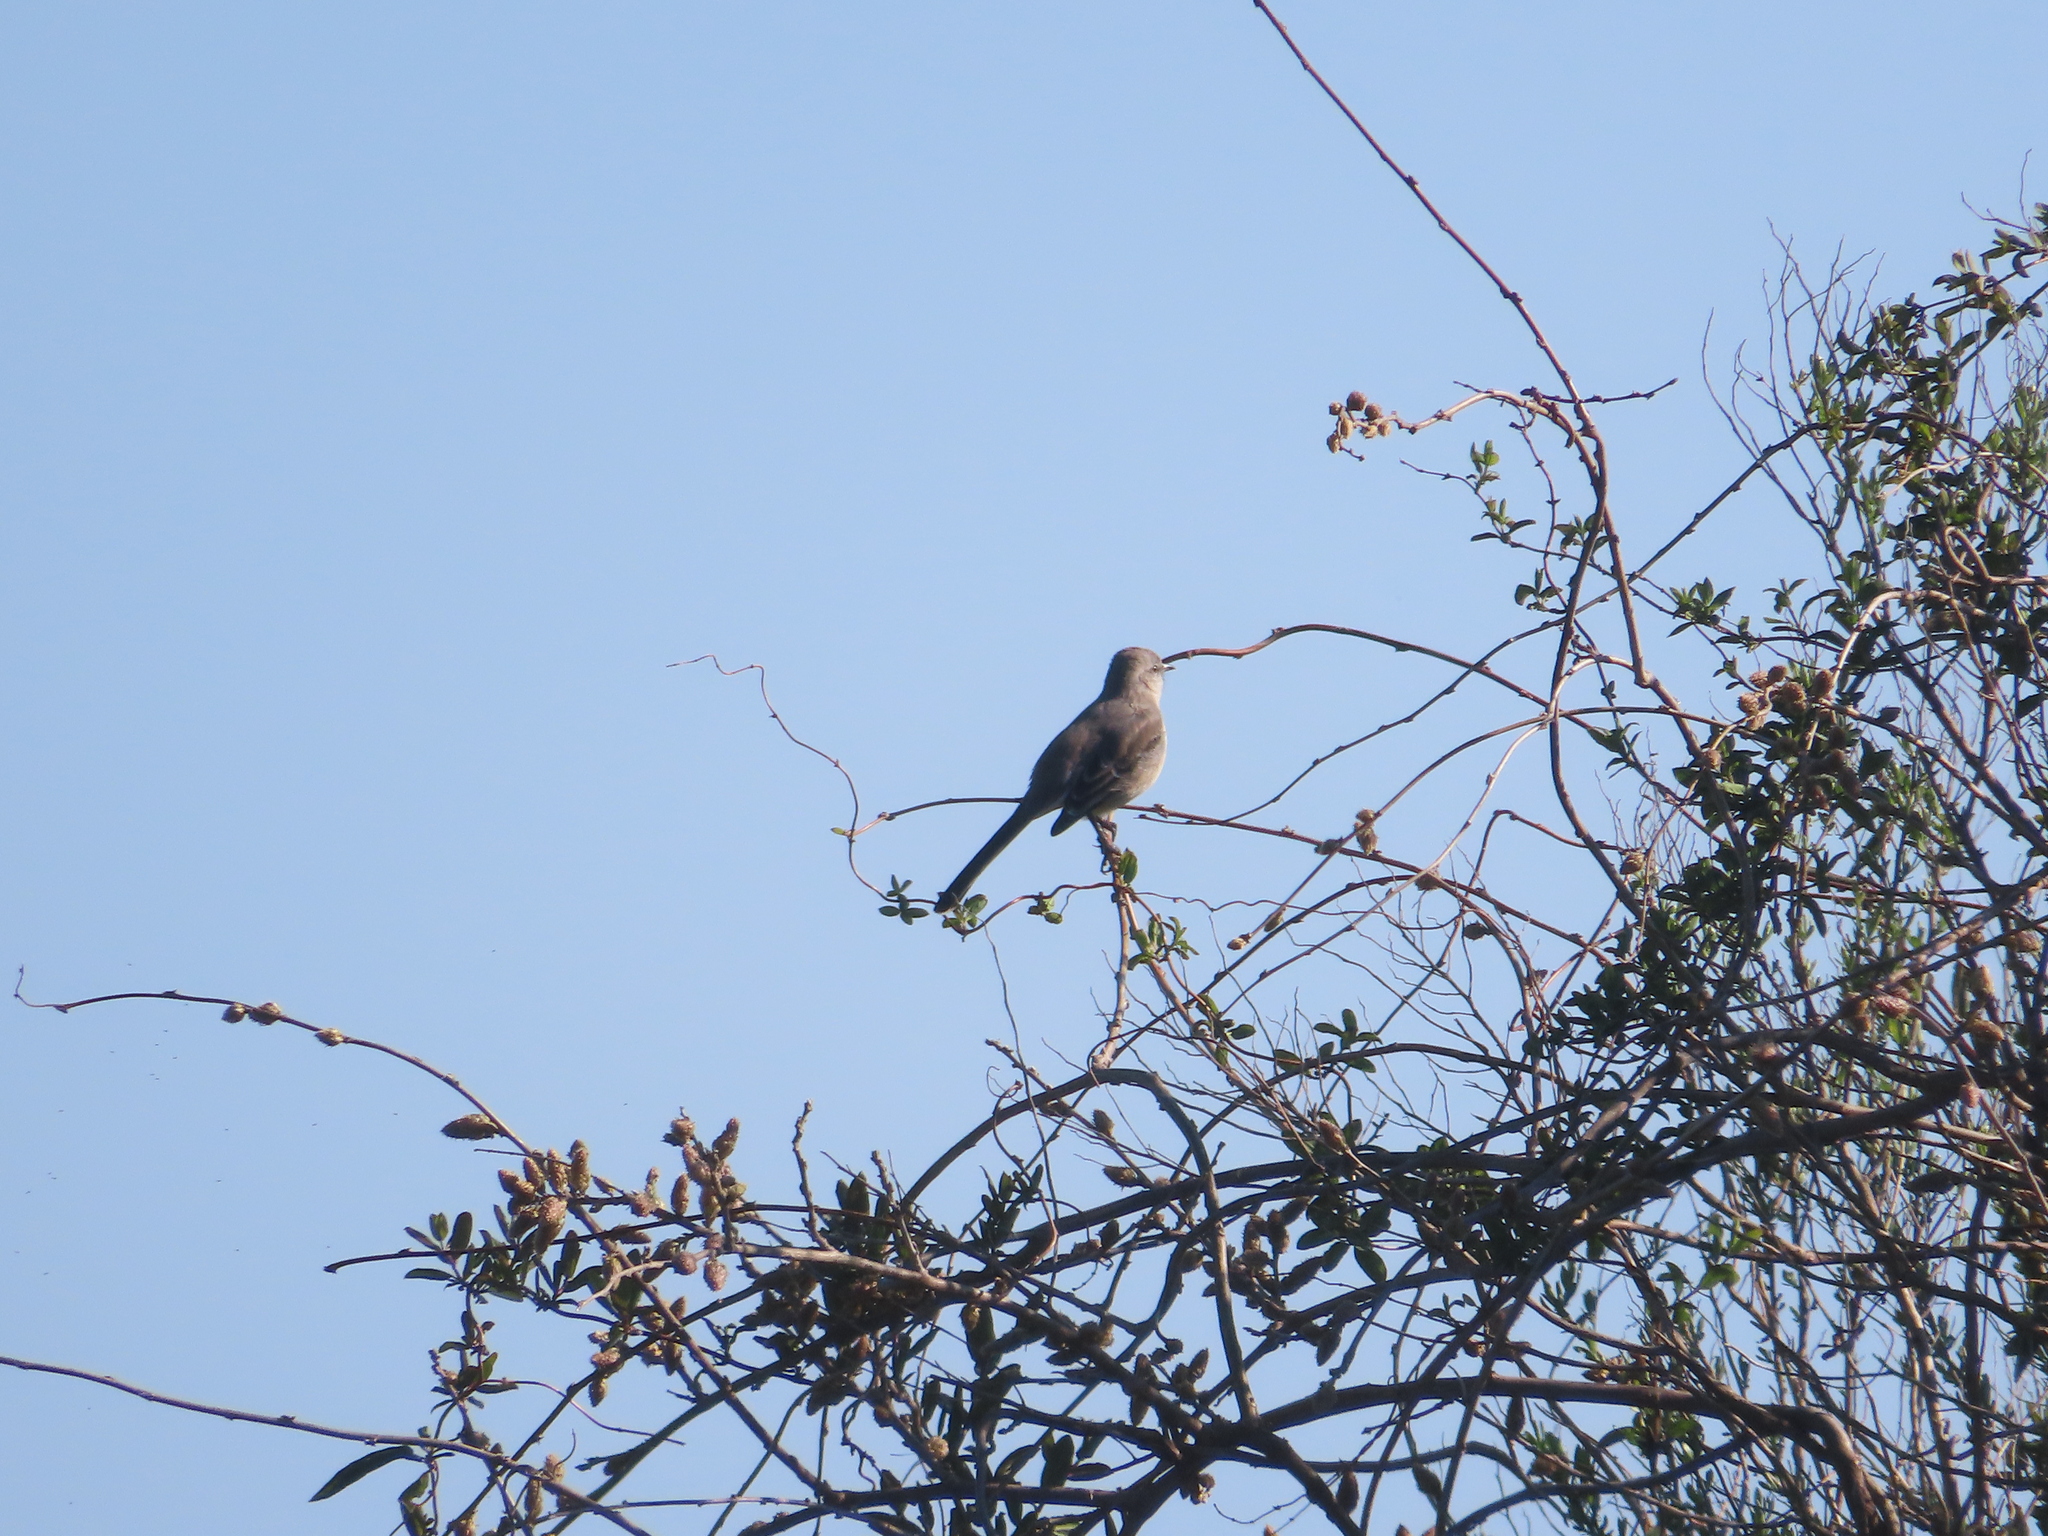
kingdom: Animalia
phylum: Chordata
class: Aves
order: Passeriformes
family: Mimidae
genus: Mimus
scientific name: Mimus polyglottos
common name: Northern mockingbird
